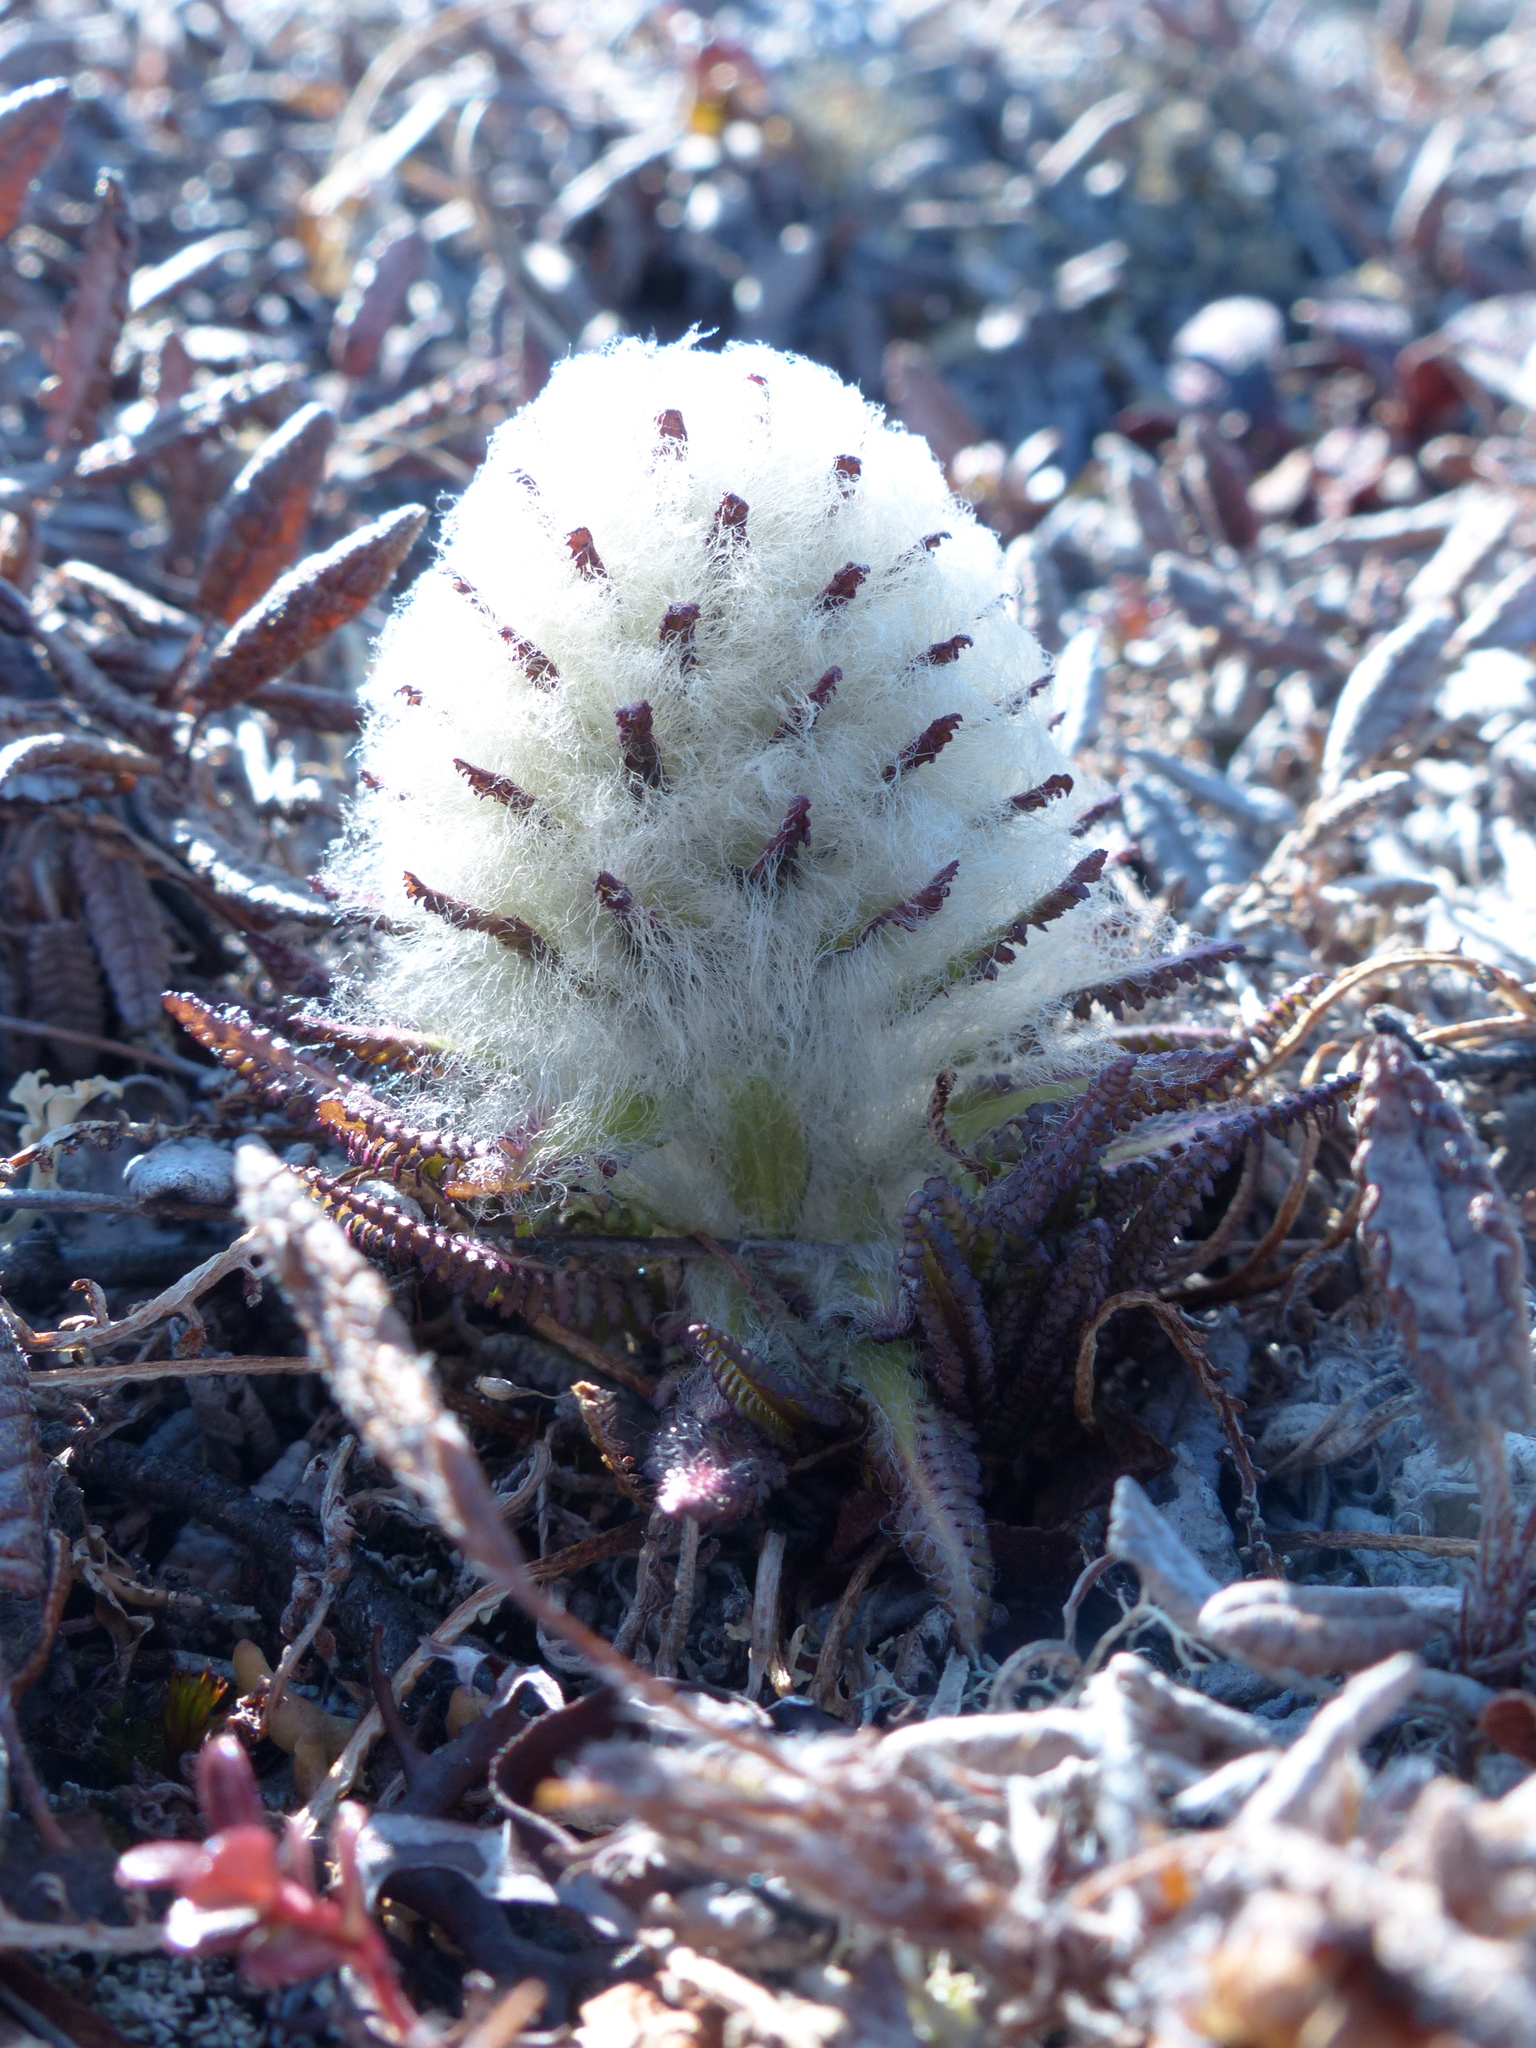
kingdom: Plantae
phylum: Tracheophyta
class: Magnoliopsida
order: Lamiales
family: Orobanchaceae
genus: Pedicularis
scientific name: Pedicularis lanata
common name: Woolly lousewort
